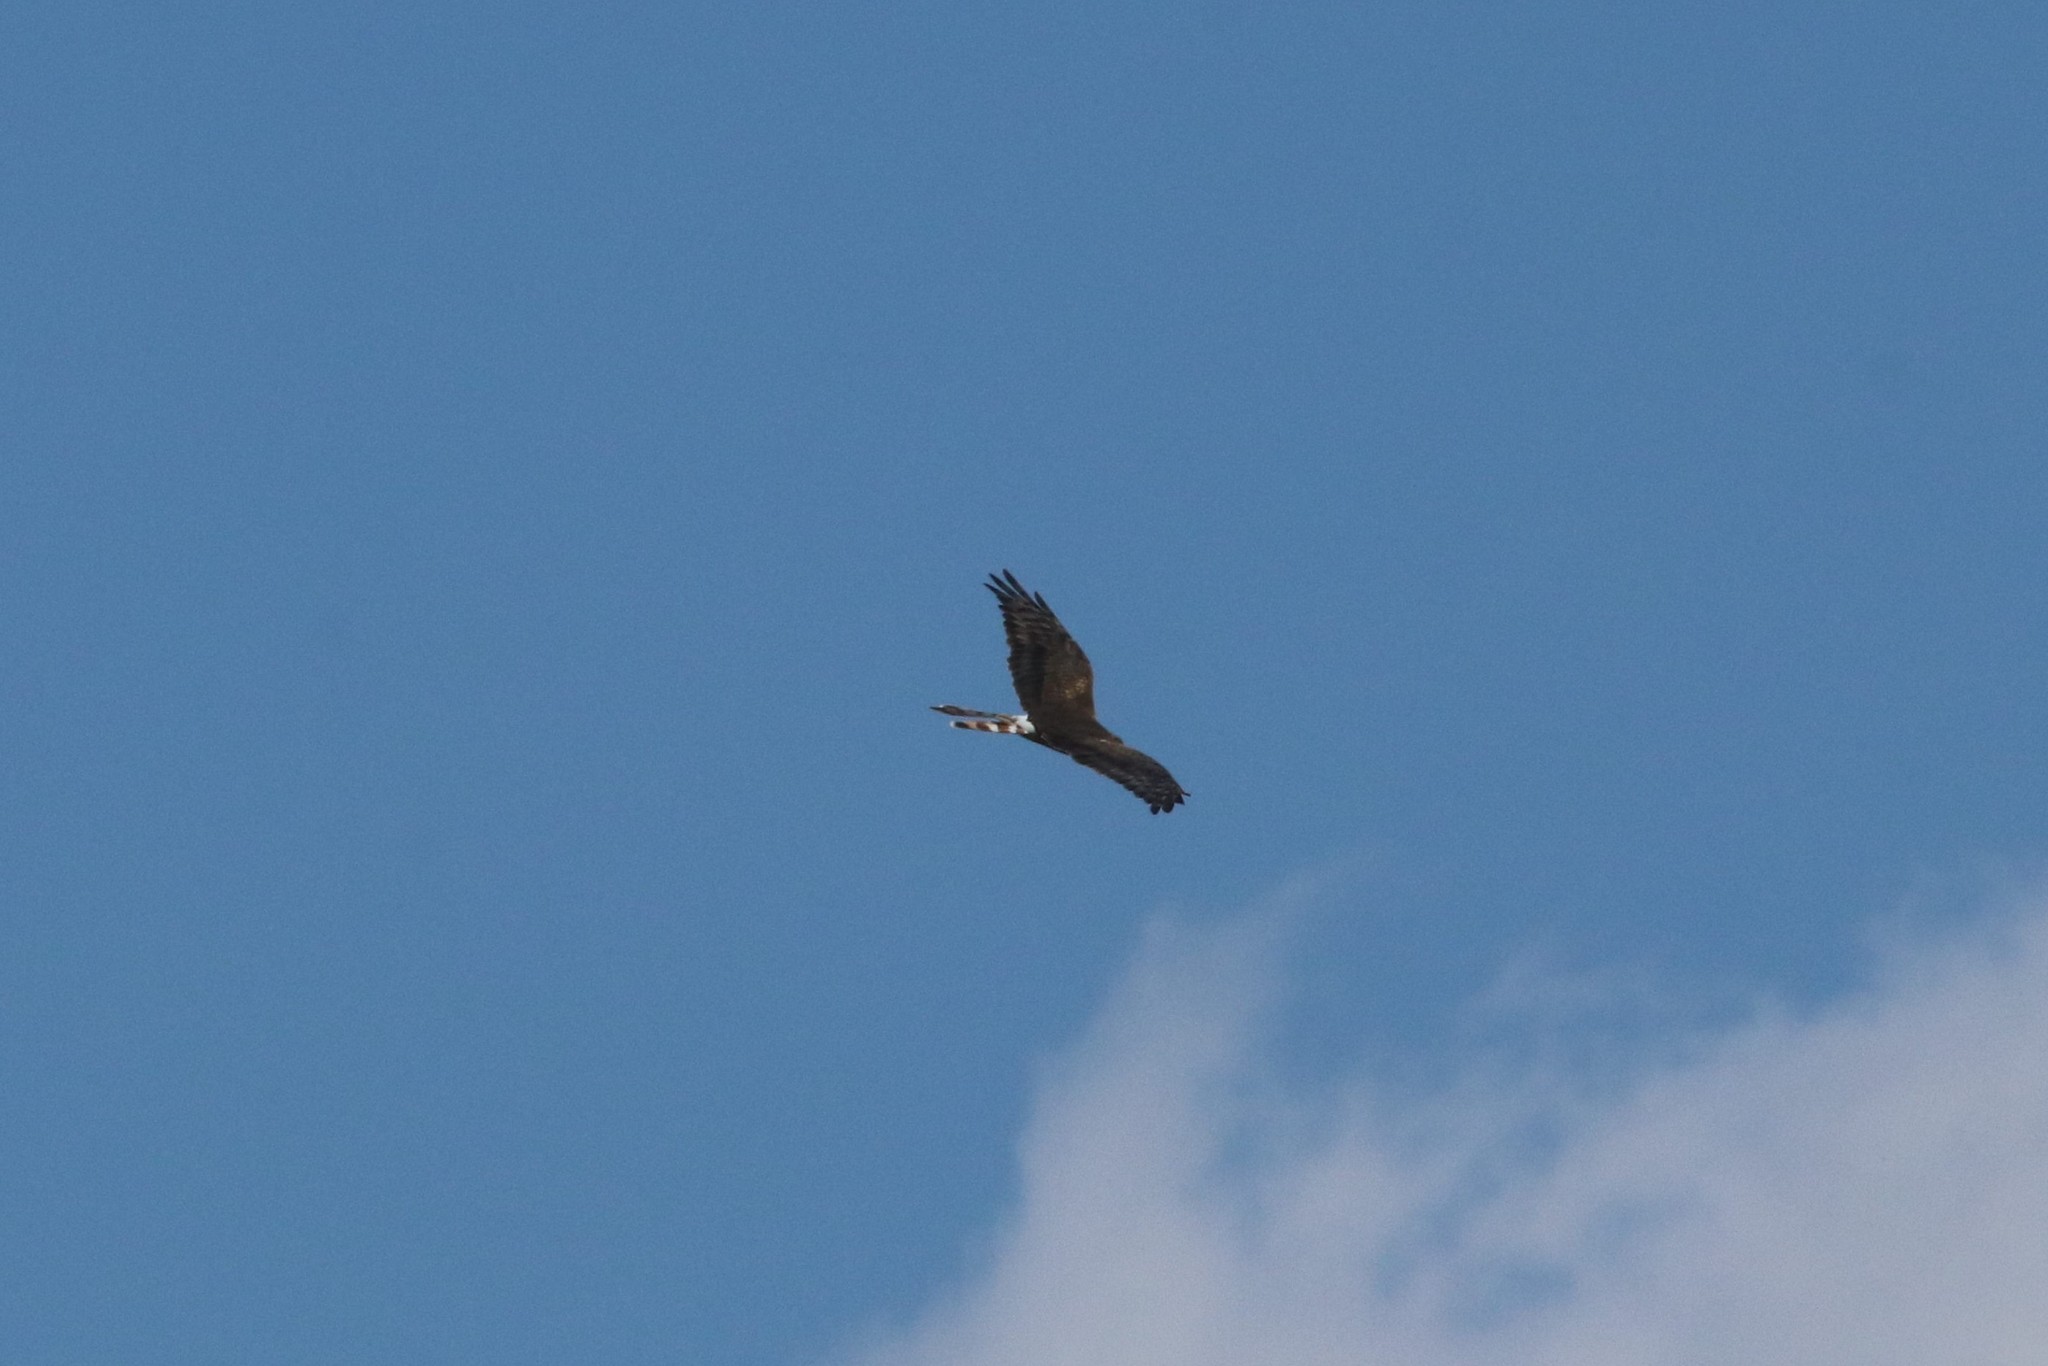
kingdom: Animalia
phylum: Chordata
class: Aves
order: Accipitriformes
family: Accipitridae
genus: Circus
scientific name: Circus pygargus
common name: Montagu's harrier
